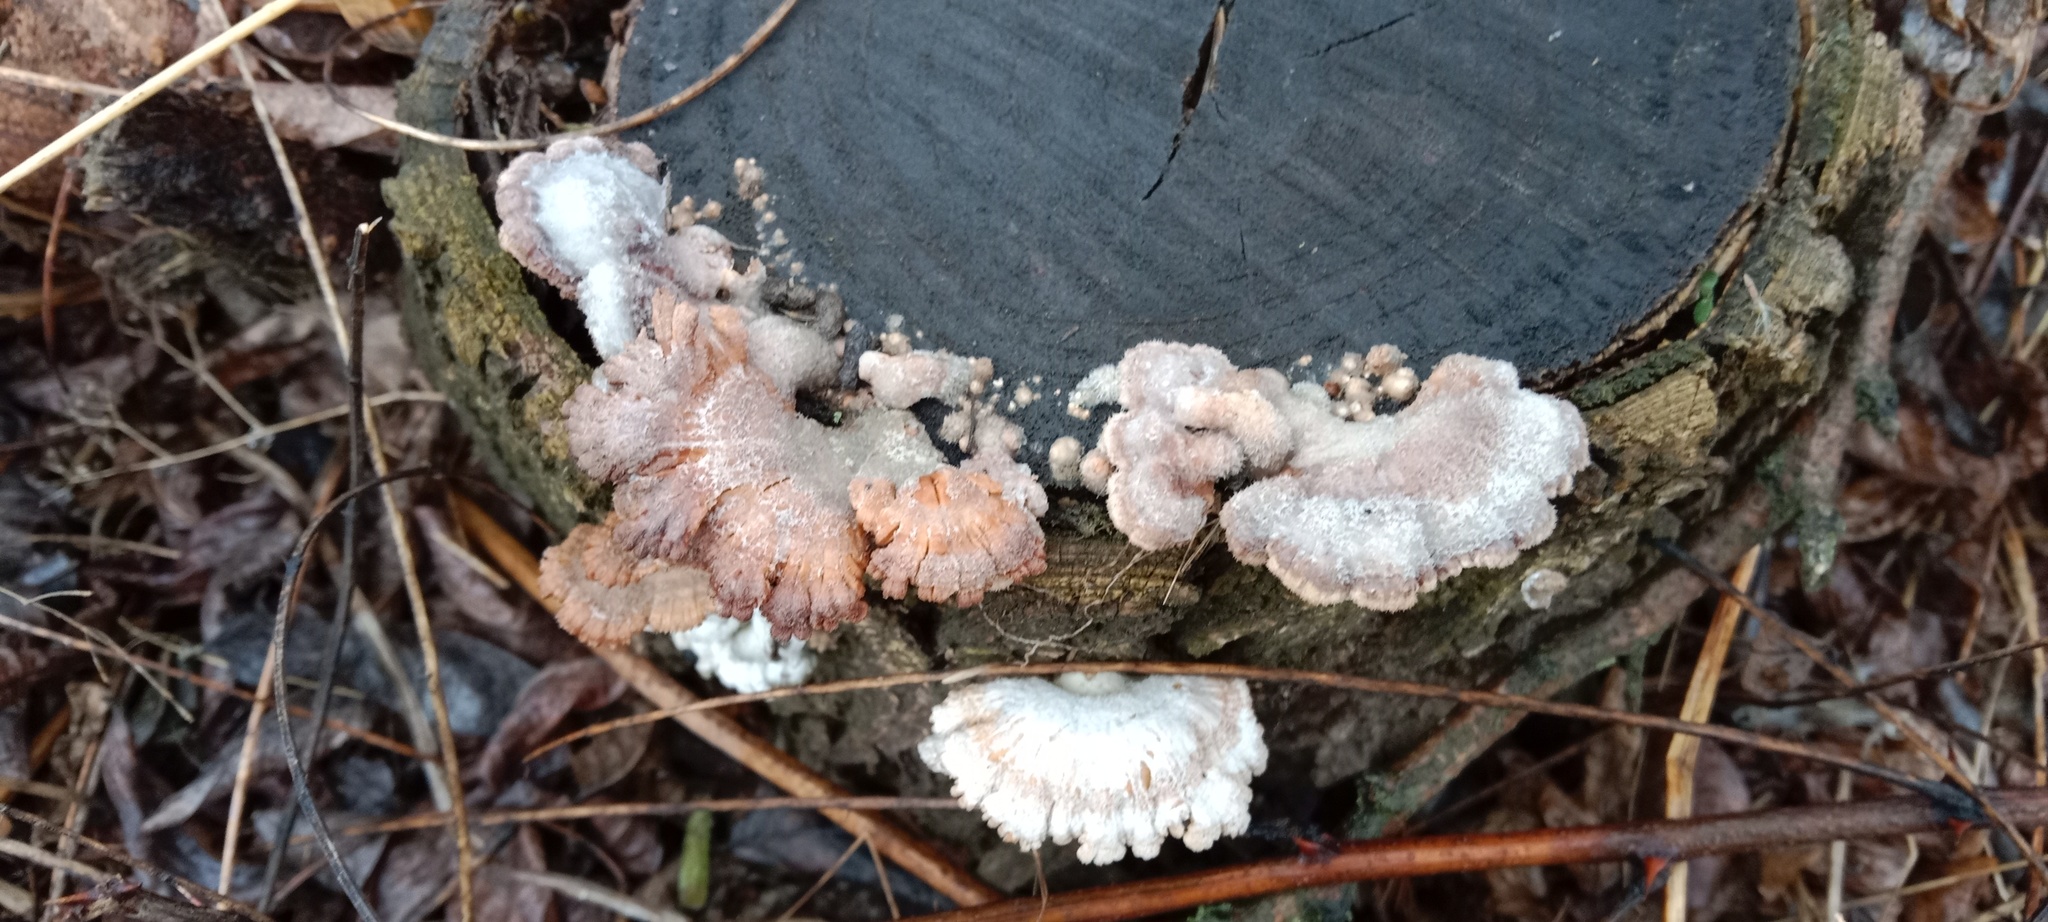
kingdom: Fungi
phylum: Basidiomycota
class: Agaricomycetes
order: Agaricales
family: Schizophyllaceae
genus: Schizophyllum
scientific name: Schizophyllum commune
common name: Common porecrust
